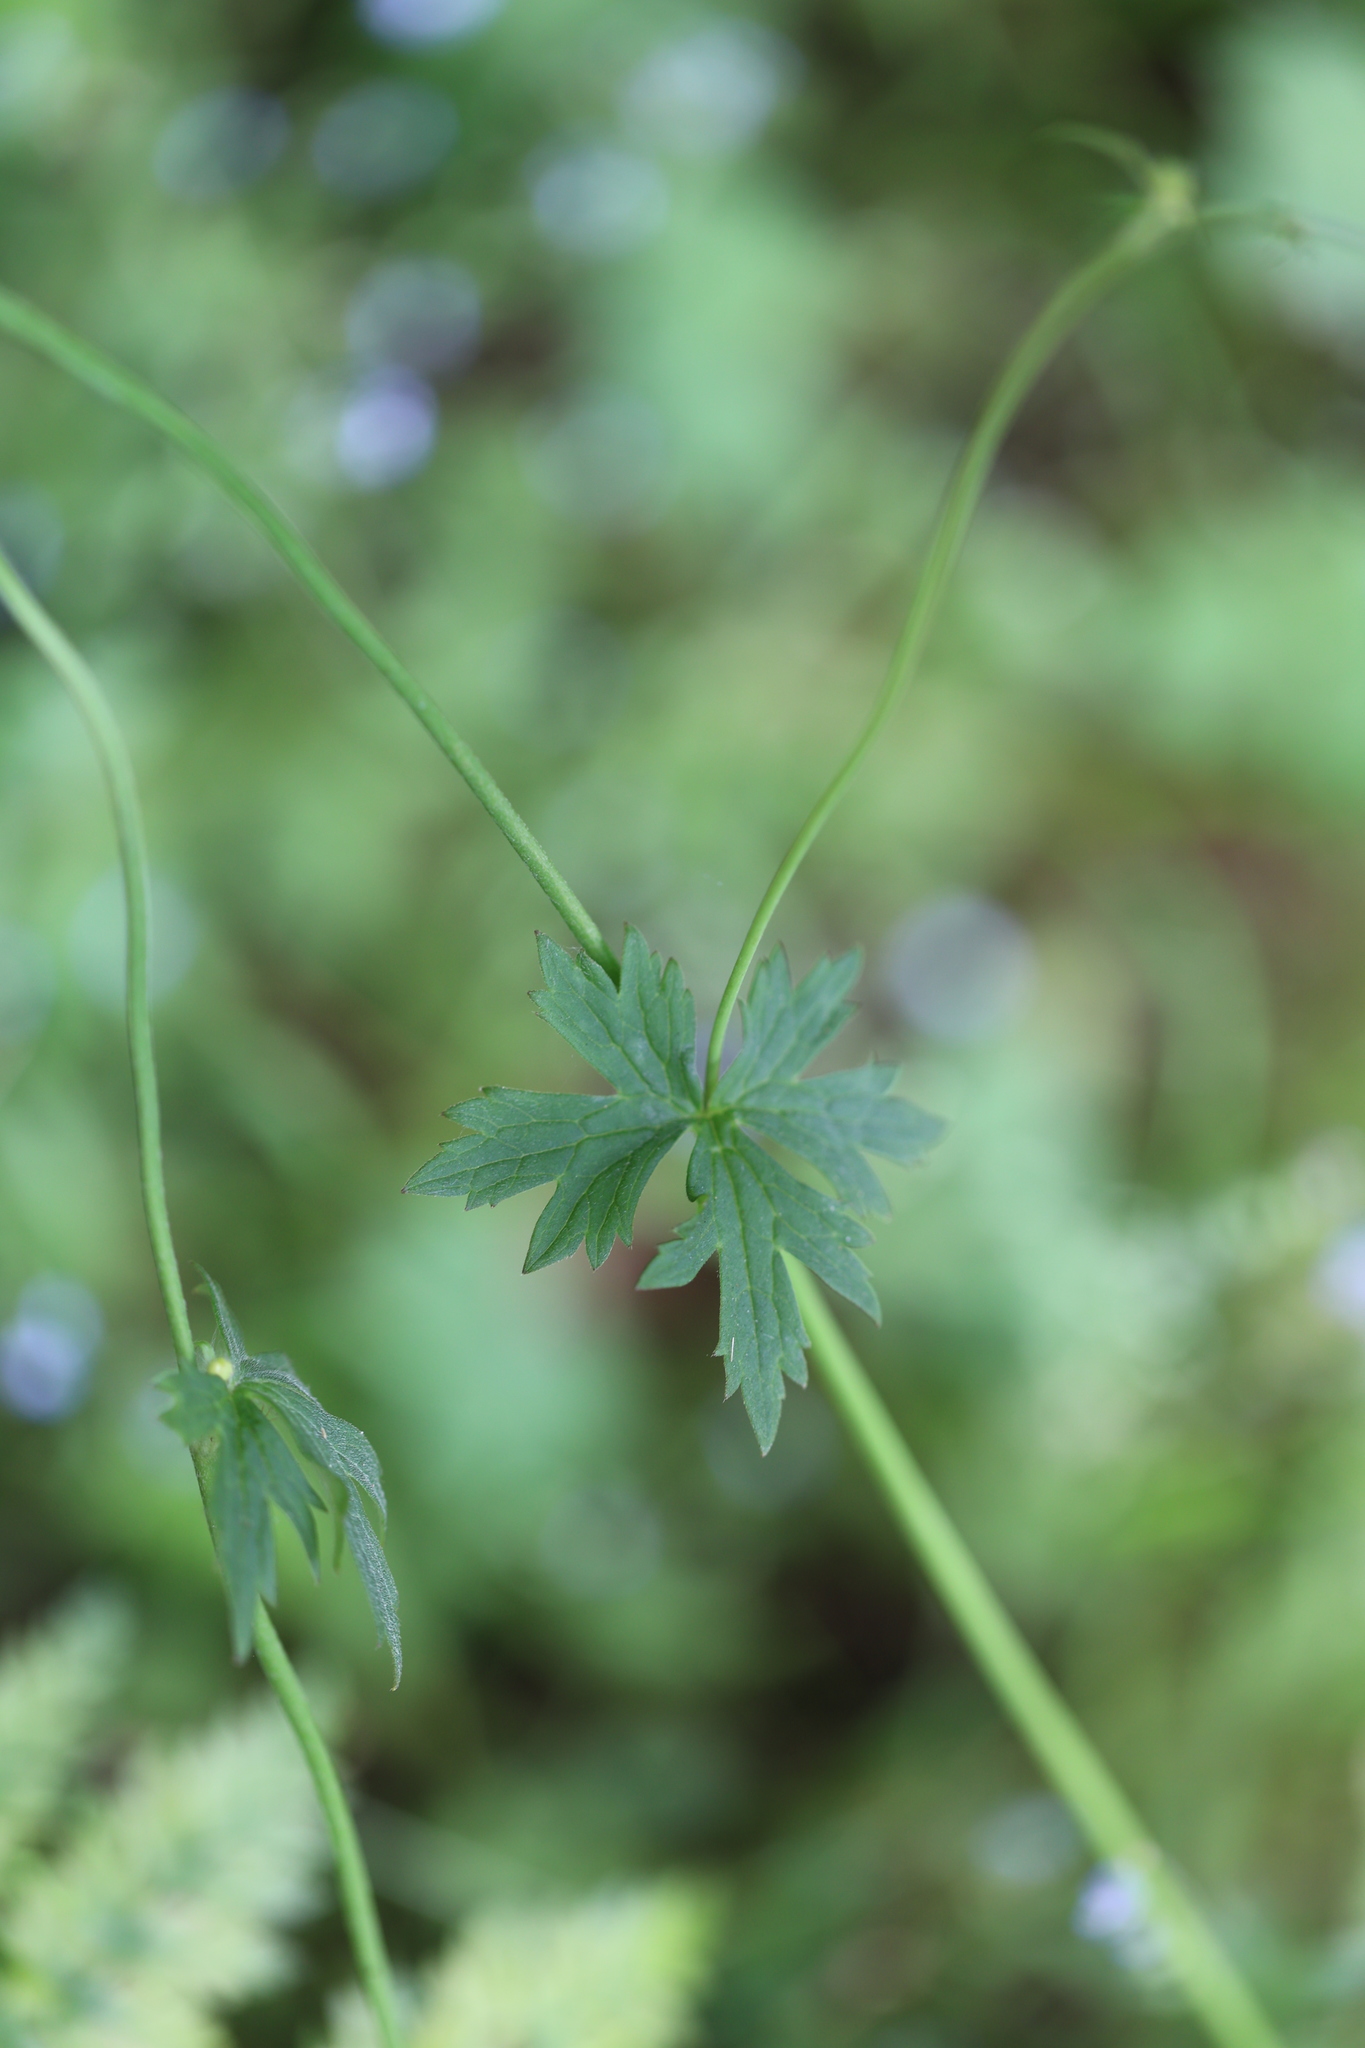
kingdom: Plantae
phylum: Tracheophyta
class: Magnoliopsida
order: Ranunculales
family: Ranunculaceae
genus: Ranunculus
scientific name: Ranunculus acris
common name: Meadow buttercup
